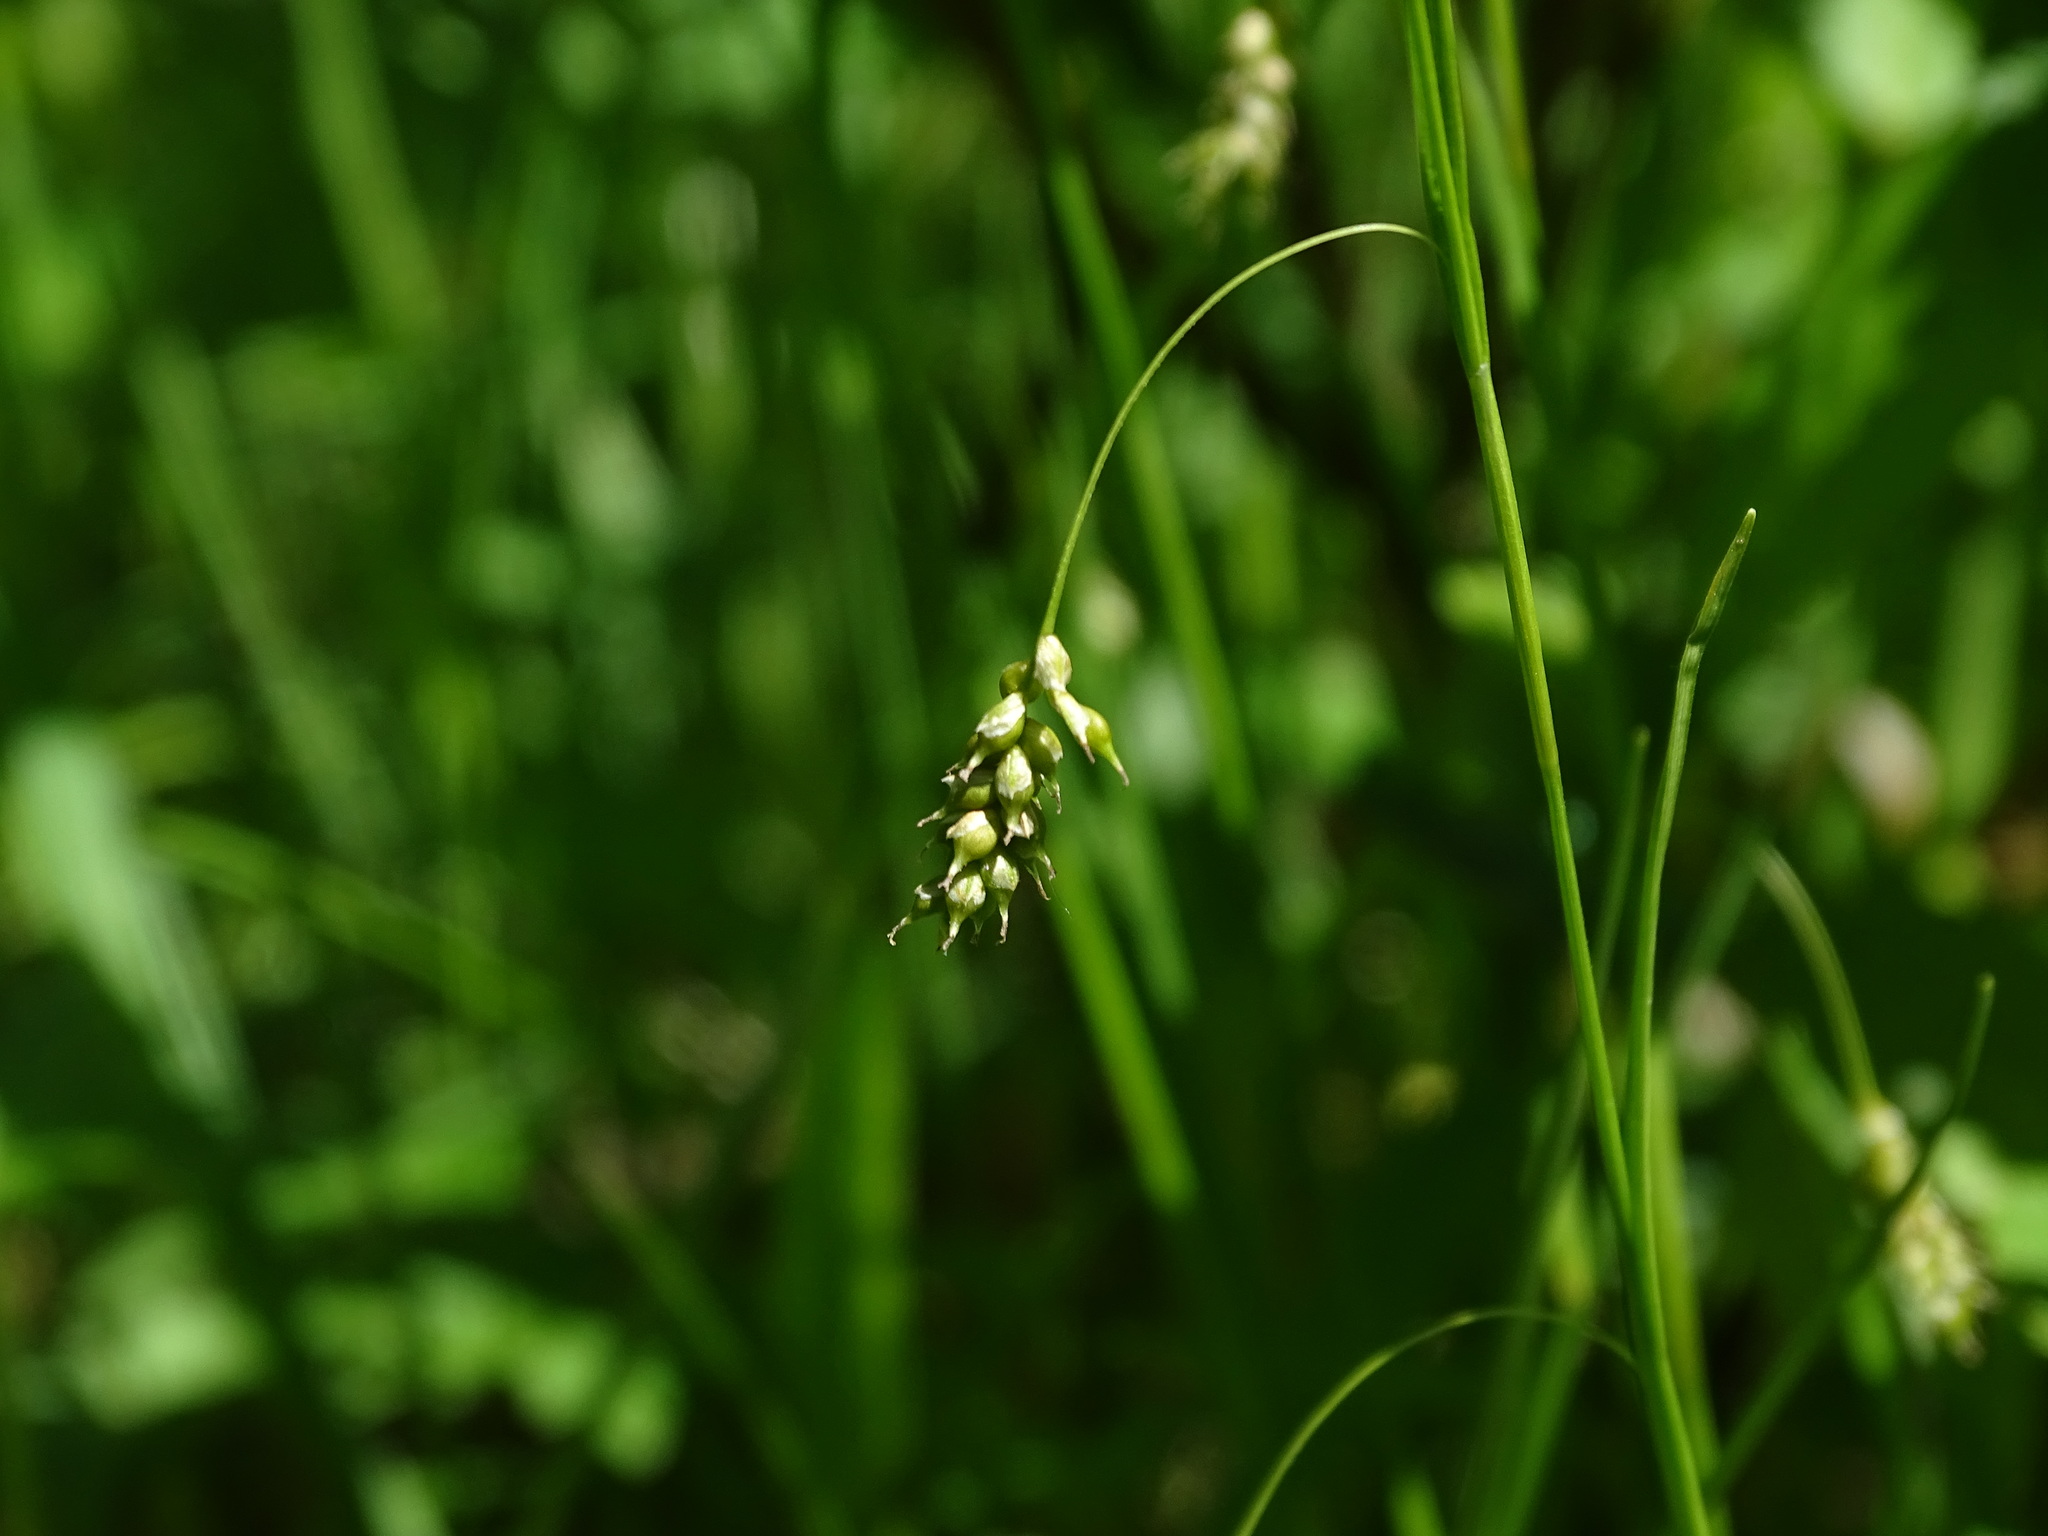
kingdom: Plantae
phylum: Tracheophyta
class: Liliopsida
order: Poales
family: Cyperaceae
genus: Carex
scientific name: Carex capillaris
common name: Hair sedge
